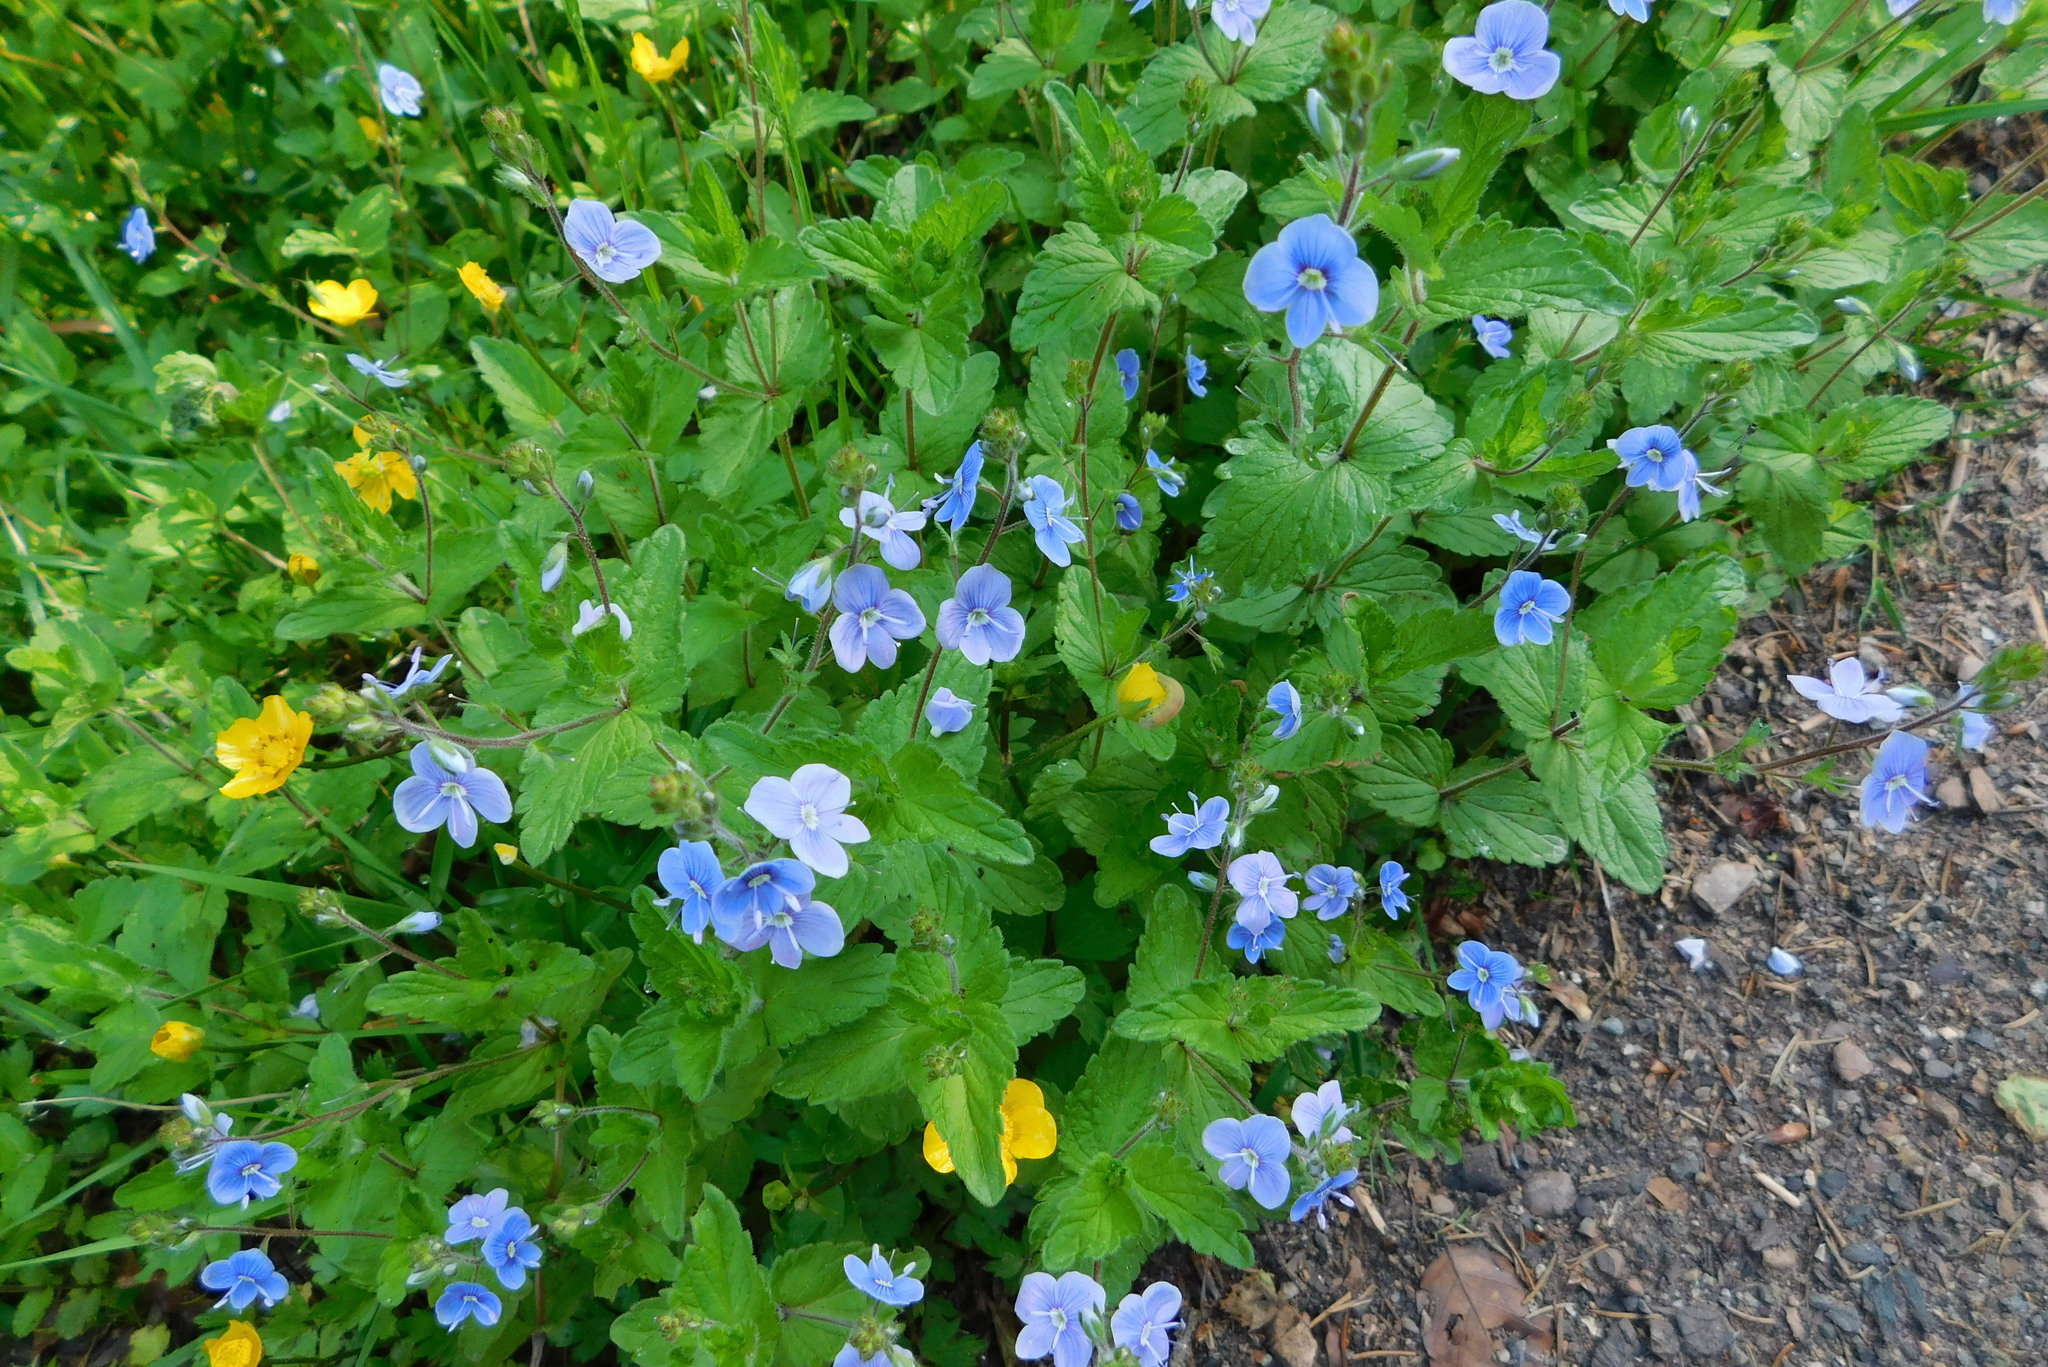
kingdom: Plantae
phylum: Tracheophyta
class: Magnoliopsida
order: Lamiales
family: Plantaginaceae
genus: Veronica
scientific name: Veronica chamaedrys
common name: Germander speedwell
